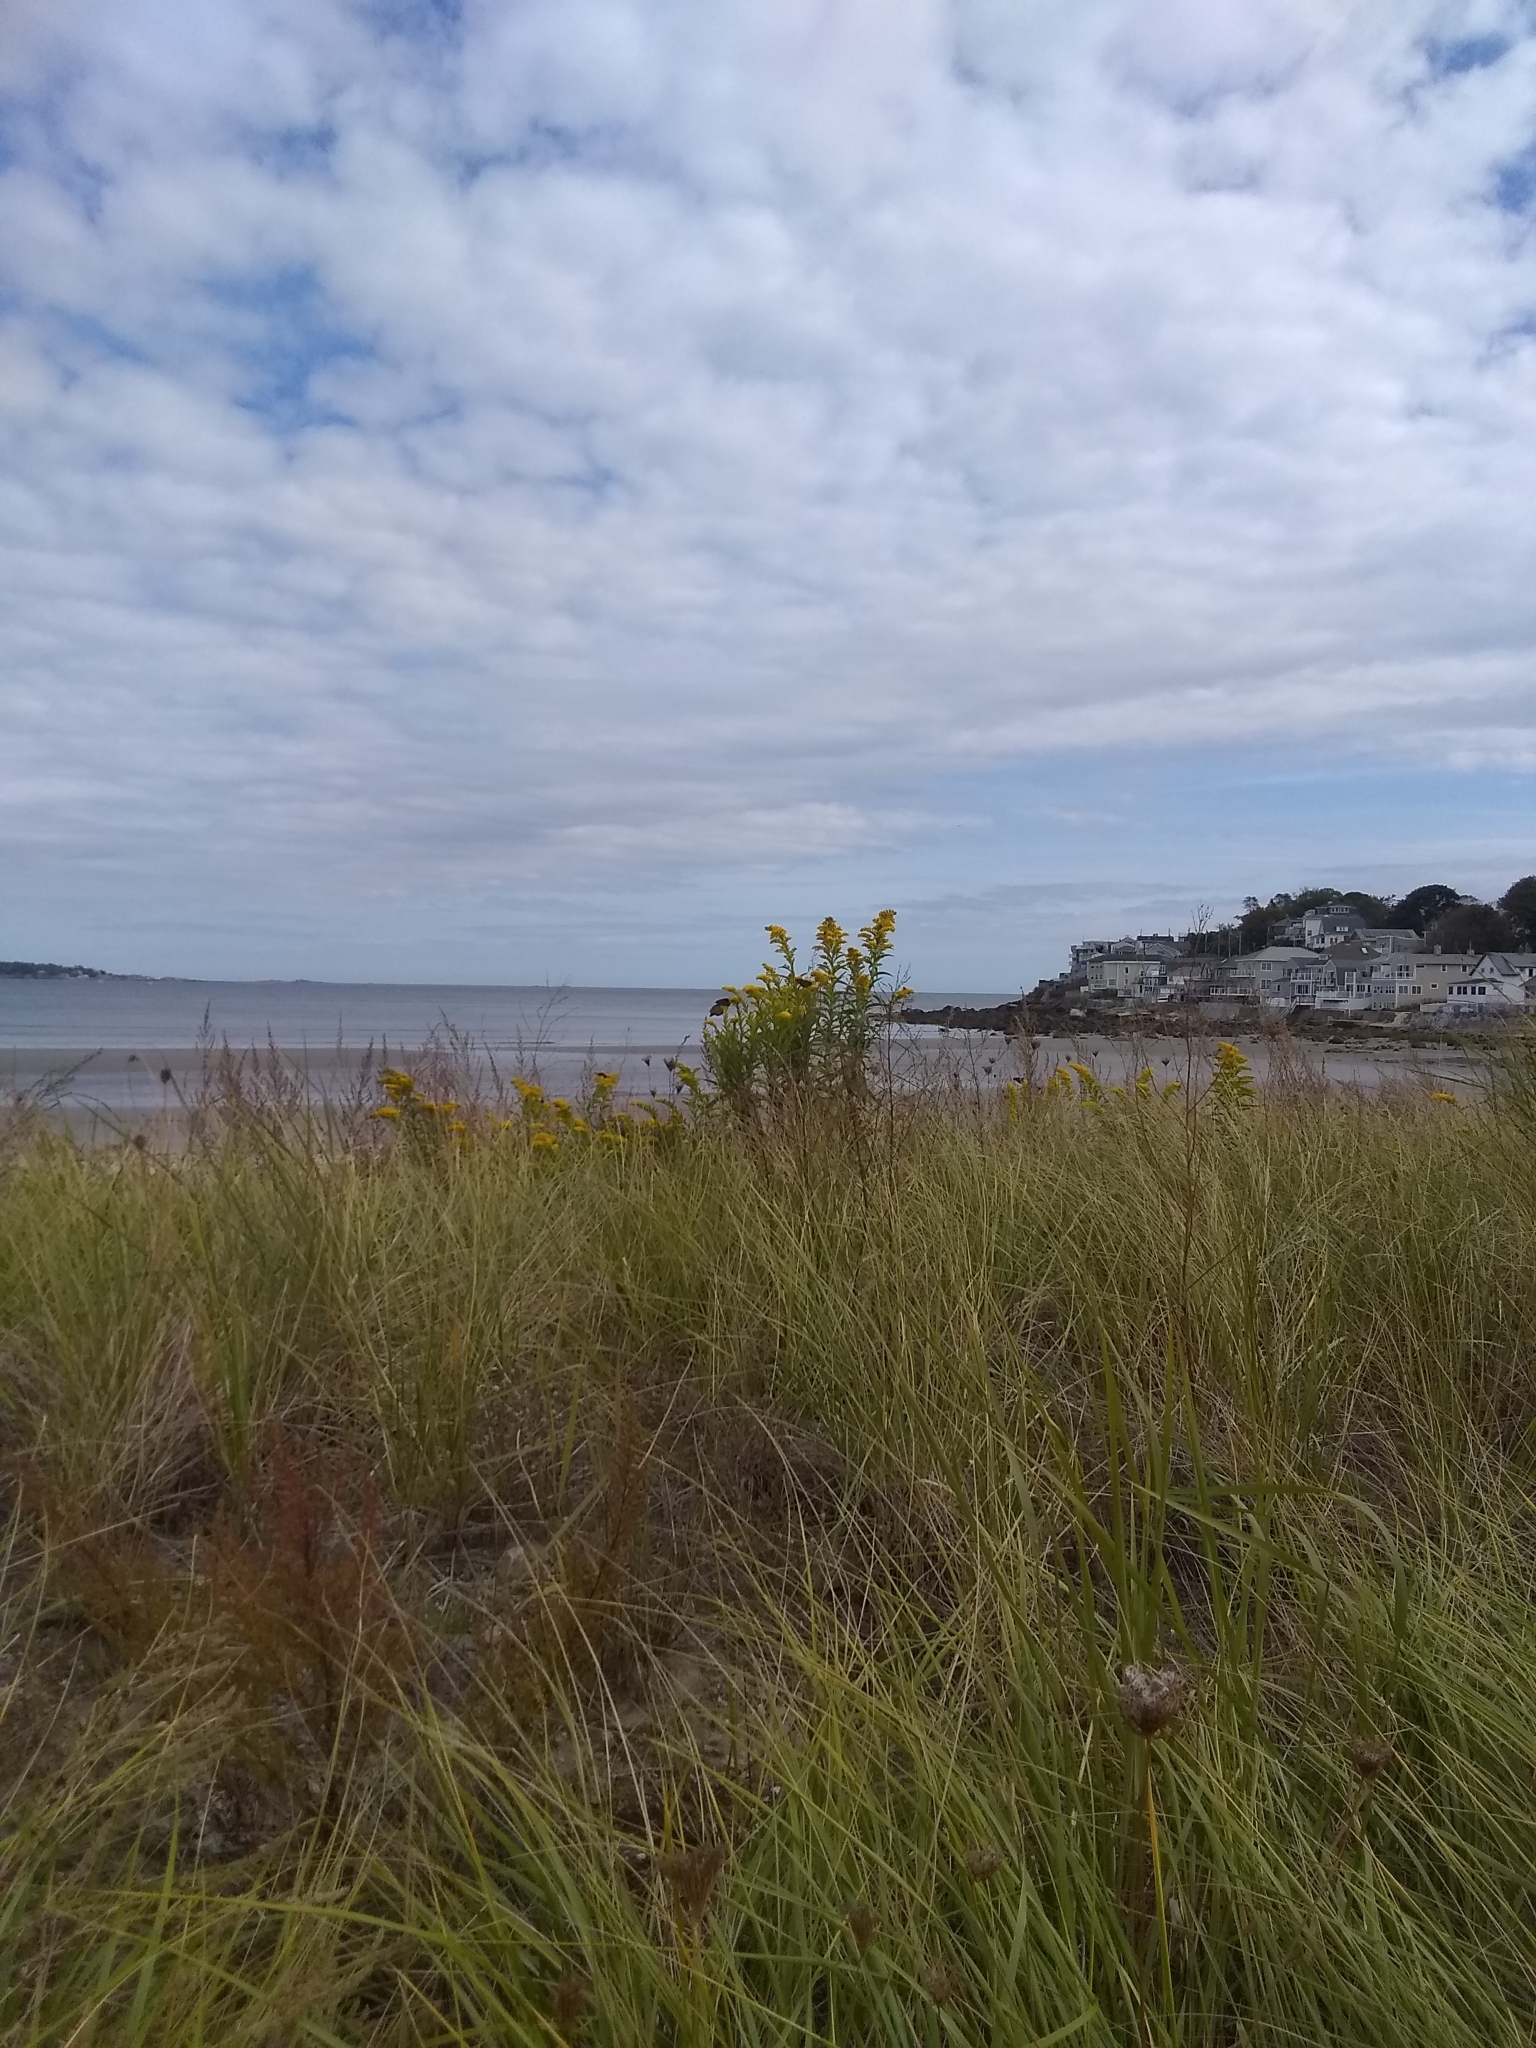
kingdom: Animalia
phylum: Arthropoda
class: Insecta
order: Lepidoptera
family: Nymphalidae
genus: Danaus
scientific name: Danaus plexippus
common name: Monarch
